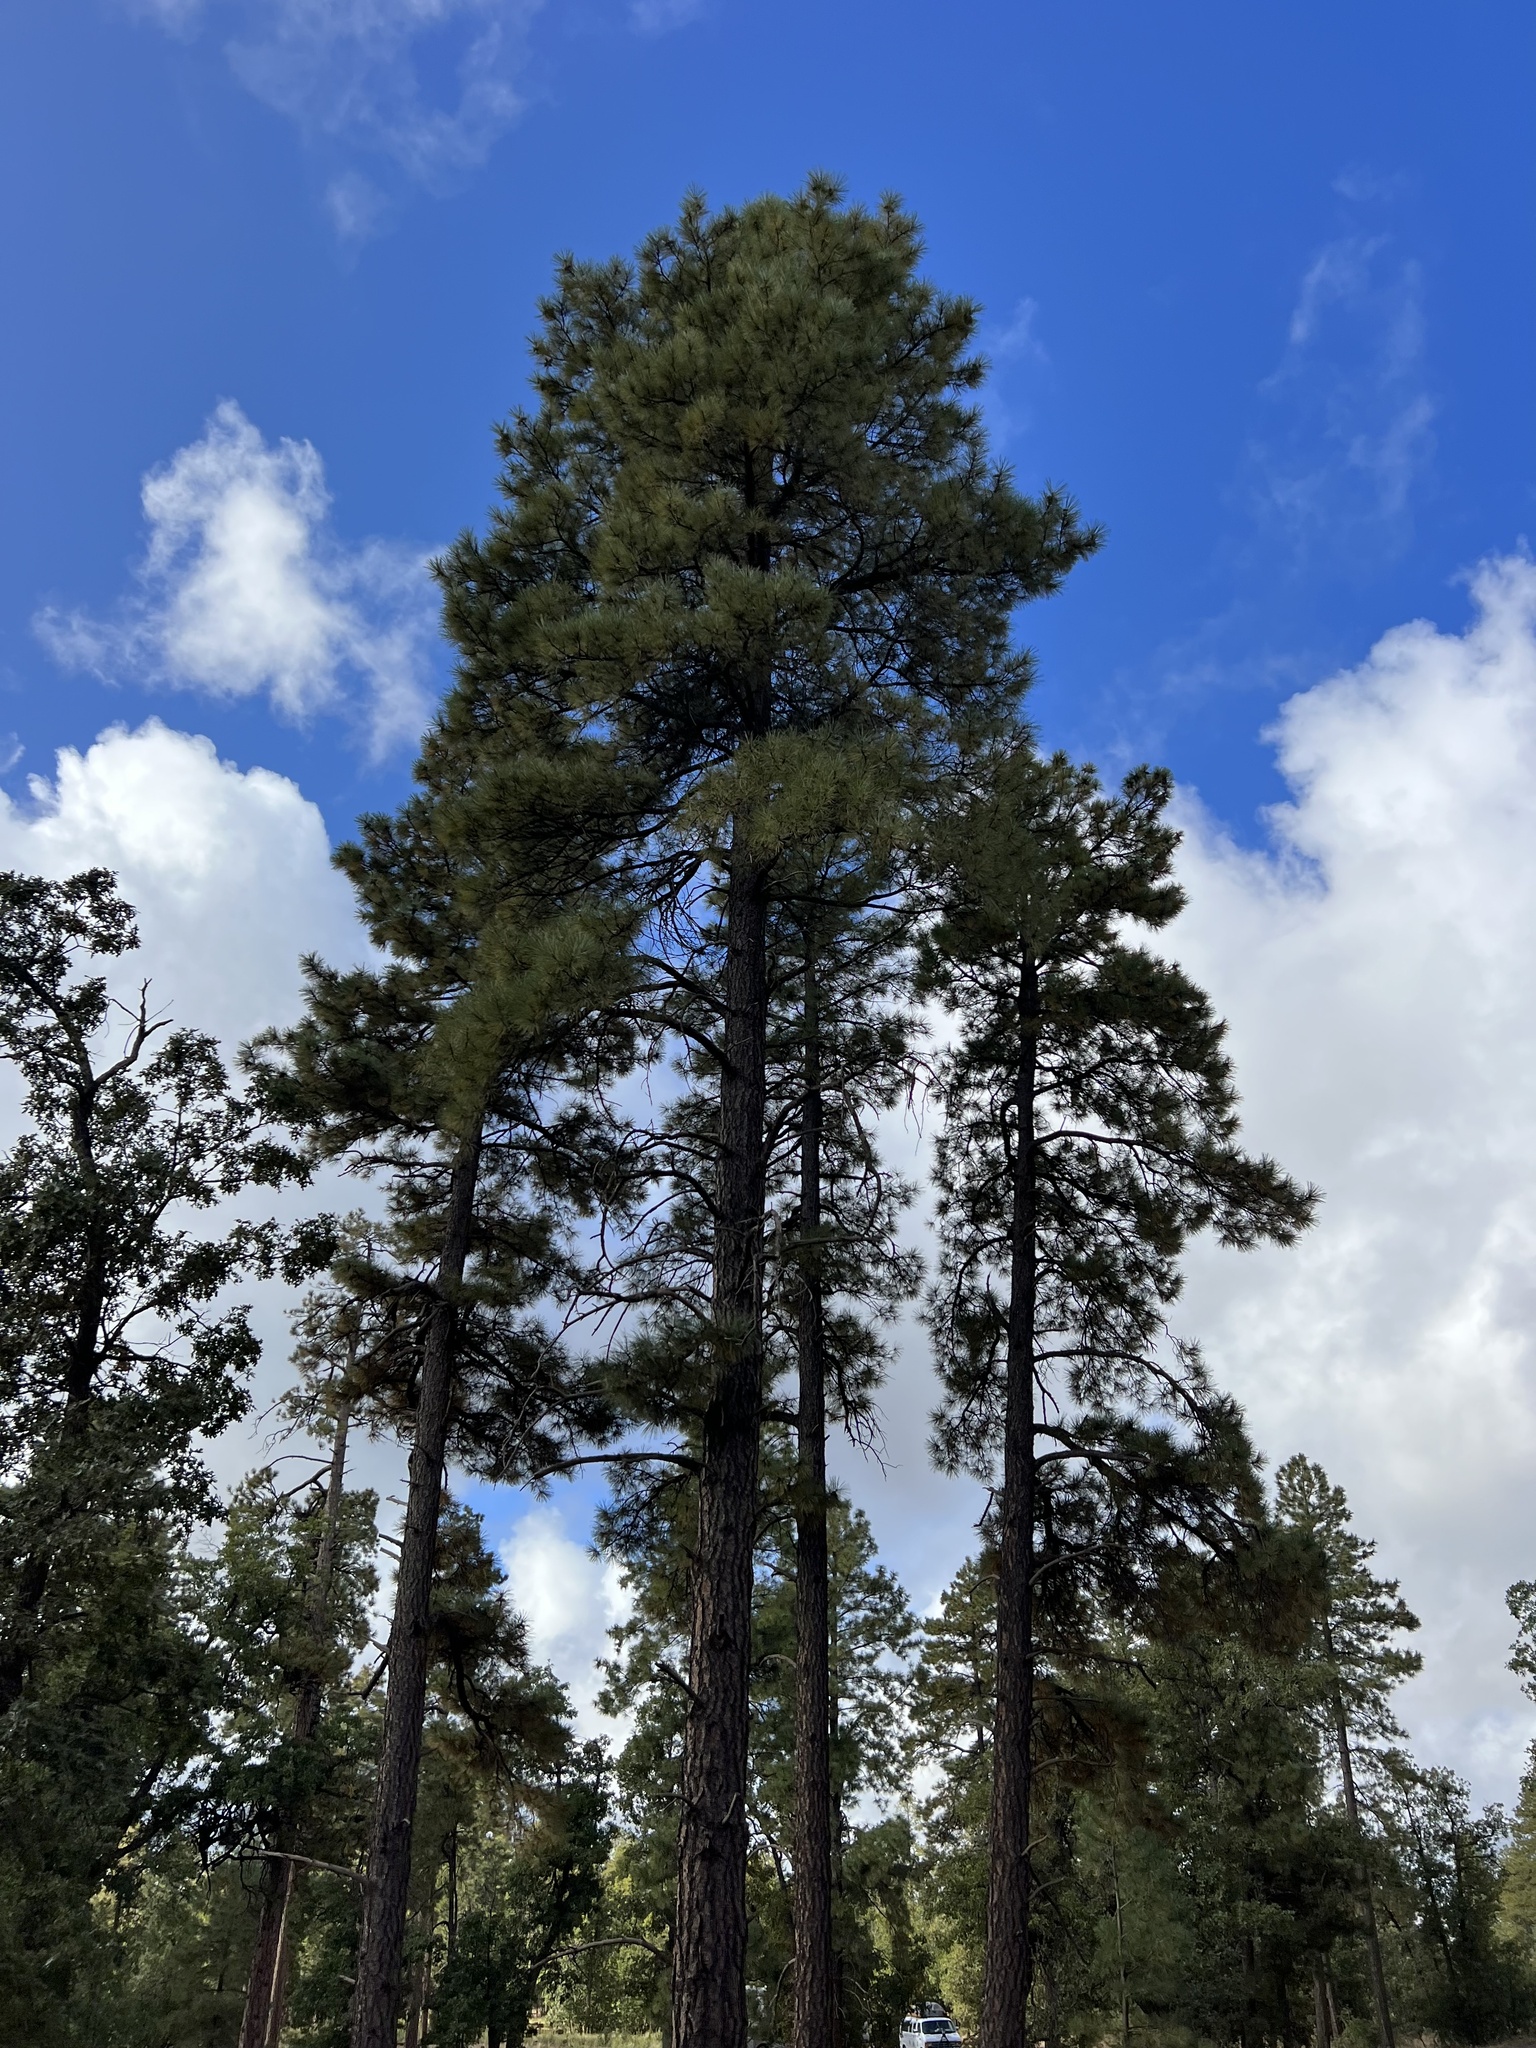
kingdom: Plantae
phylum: Tracheophyta
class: Pinopsida
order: Pinales
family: Pinaceae
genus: Pinus
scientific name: Pinus ponderosa
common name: Western yellow-pine
